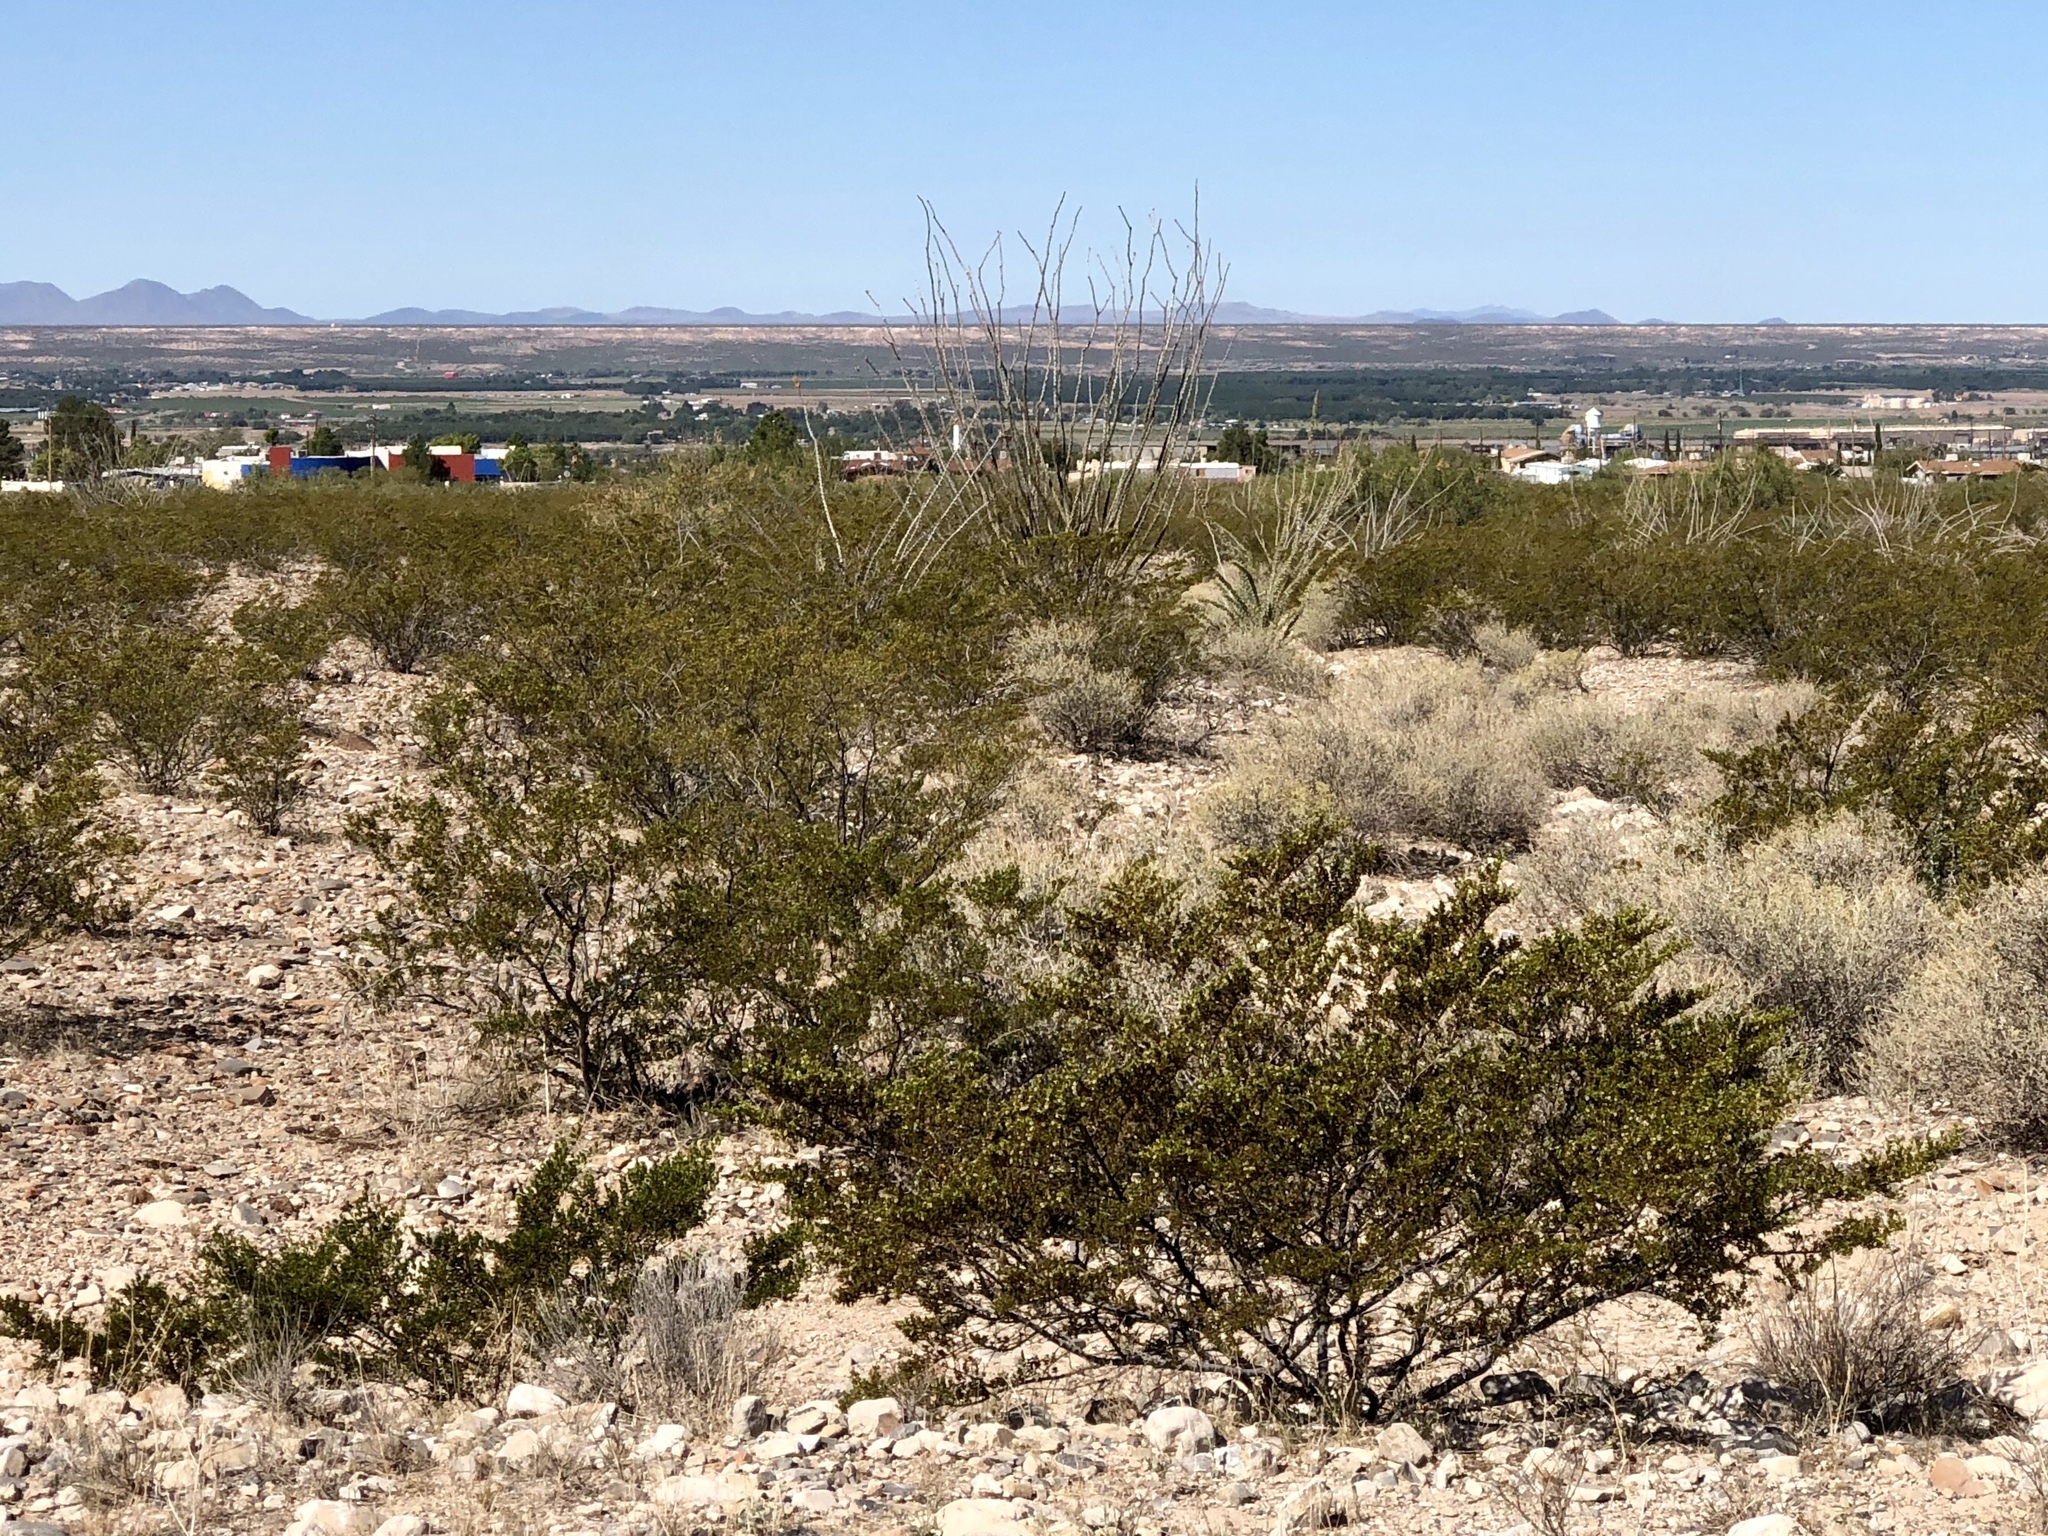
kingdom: Plantae
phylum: Tracheophyta
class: Magnoliopsida
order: Zygophyllales
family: Zygophyllaceae
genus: Larrea
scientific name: Larrea tridentata
